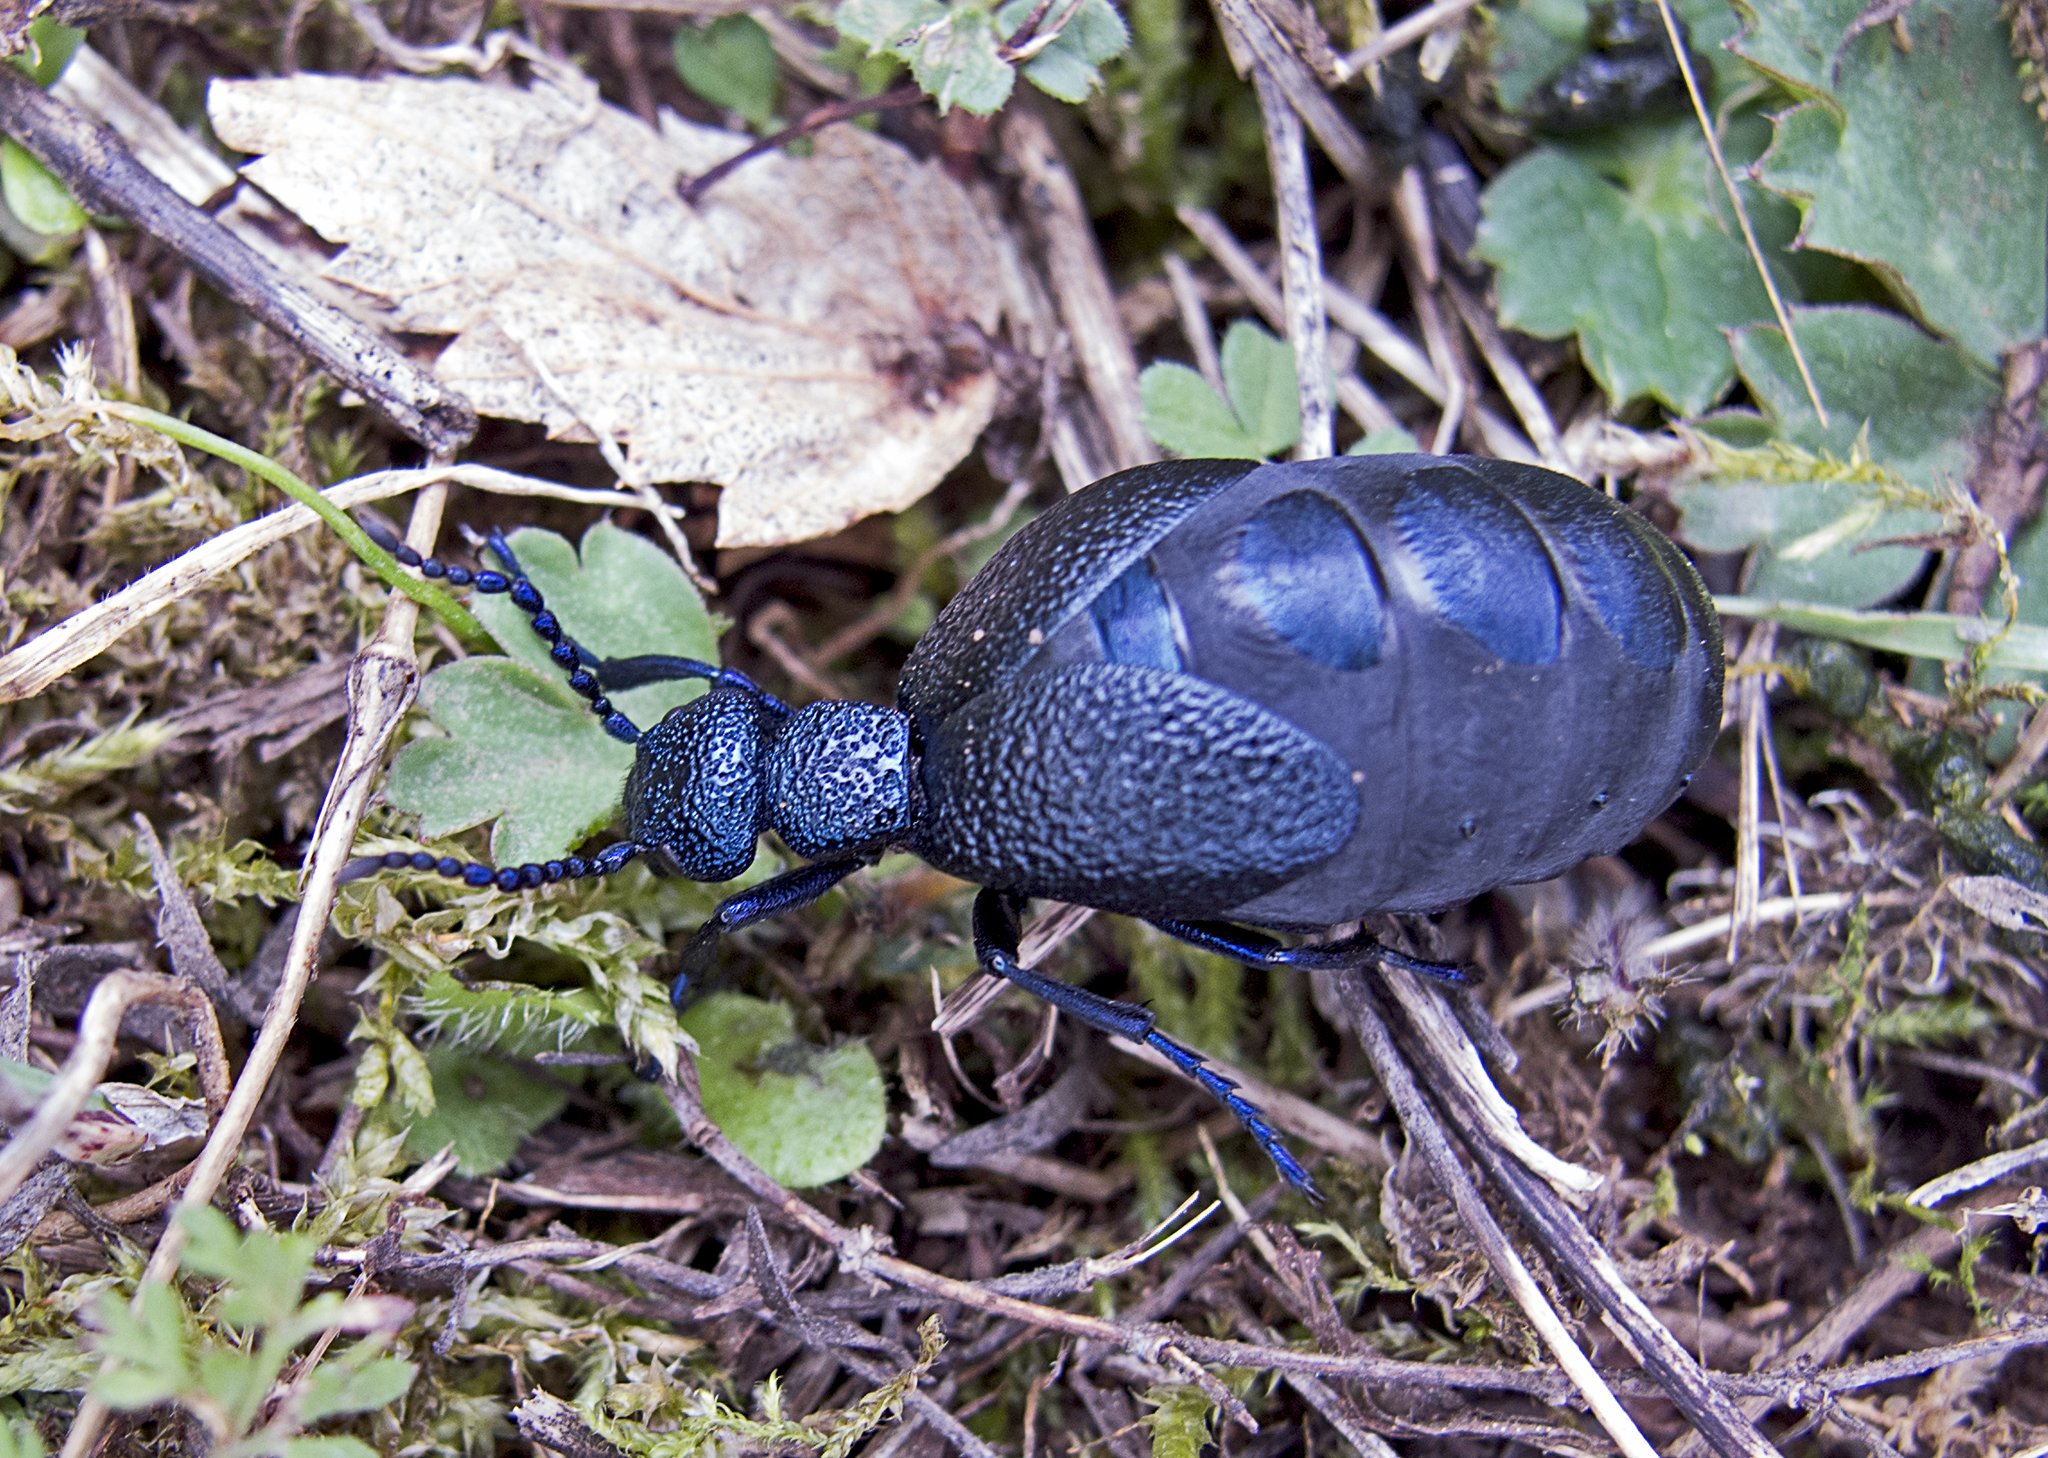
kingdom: Animalia
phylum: Arthropoda
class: Insecta
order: Coleoptera
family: Meloidae
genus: Meloe
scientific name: Meloe proscarabaeus
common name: Black oil-beetle
